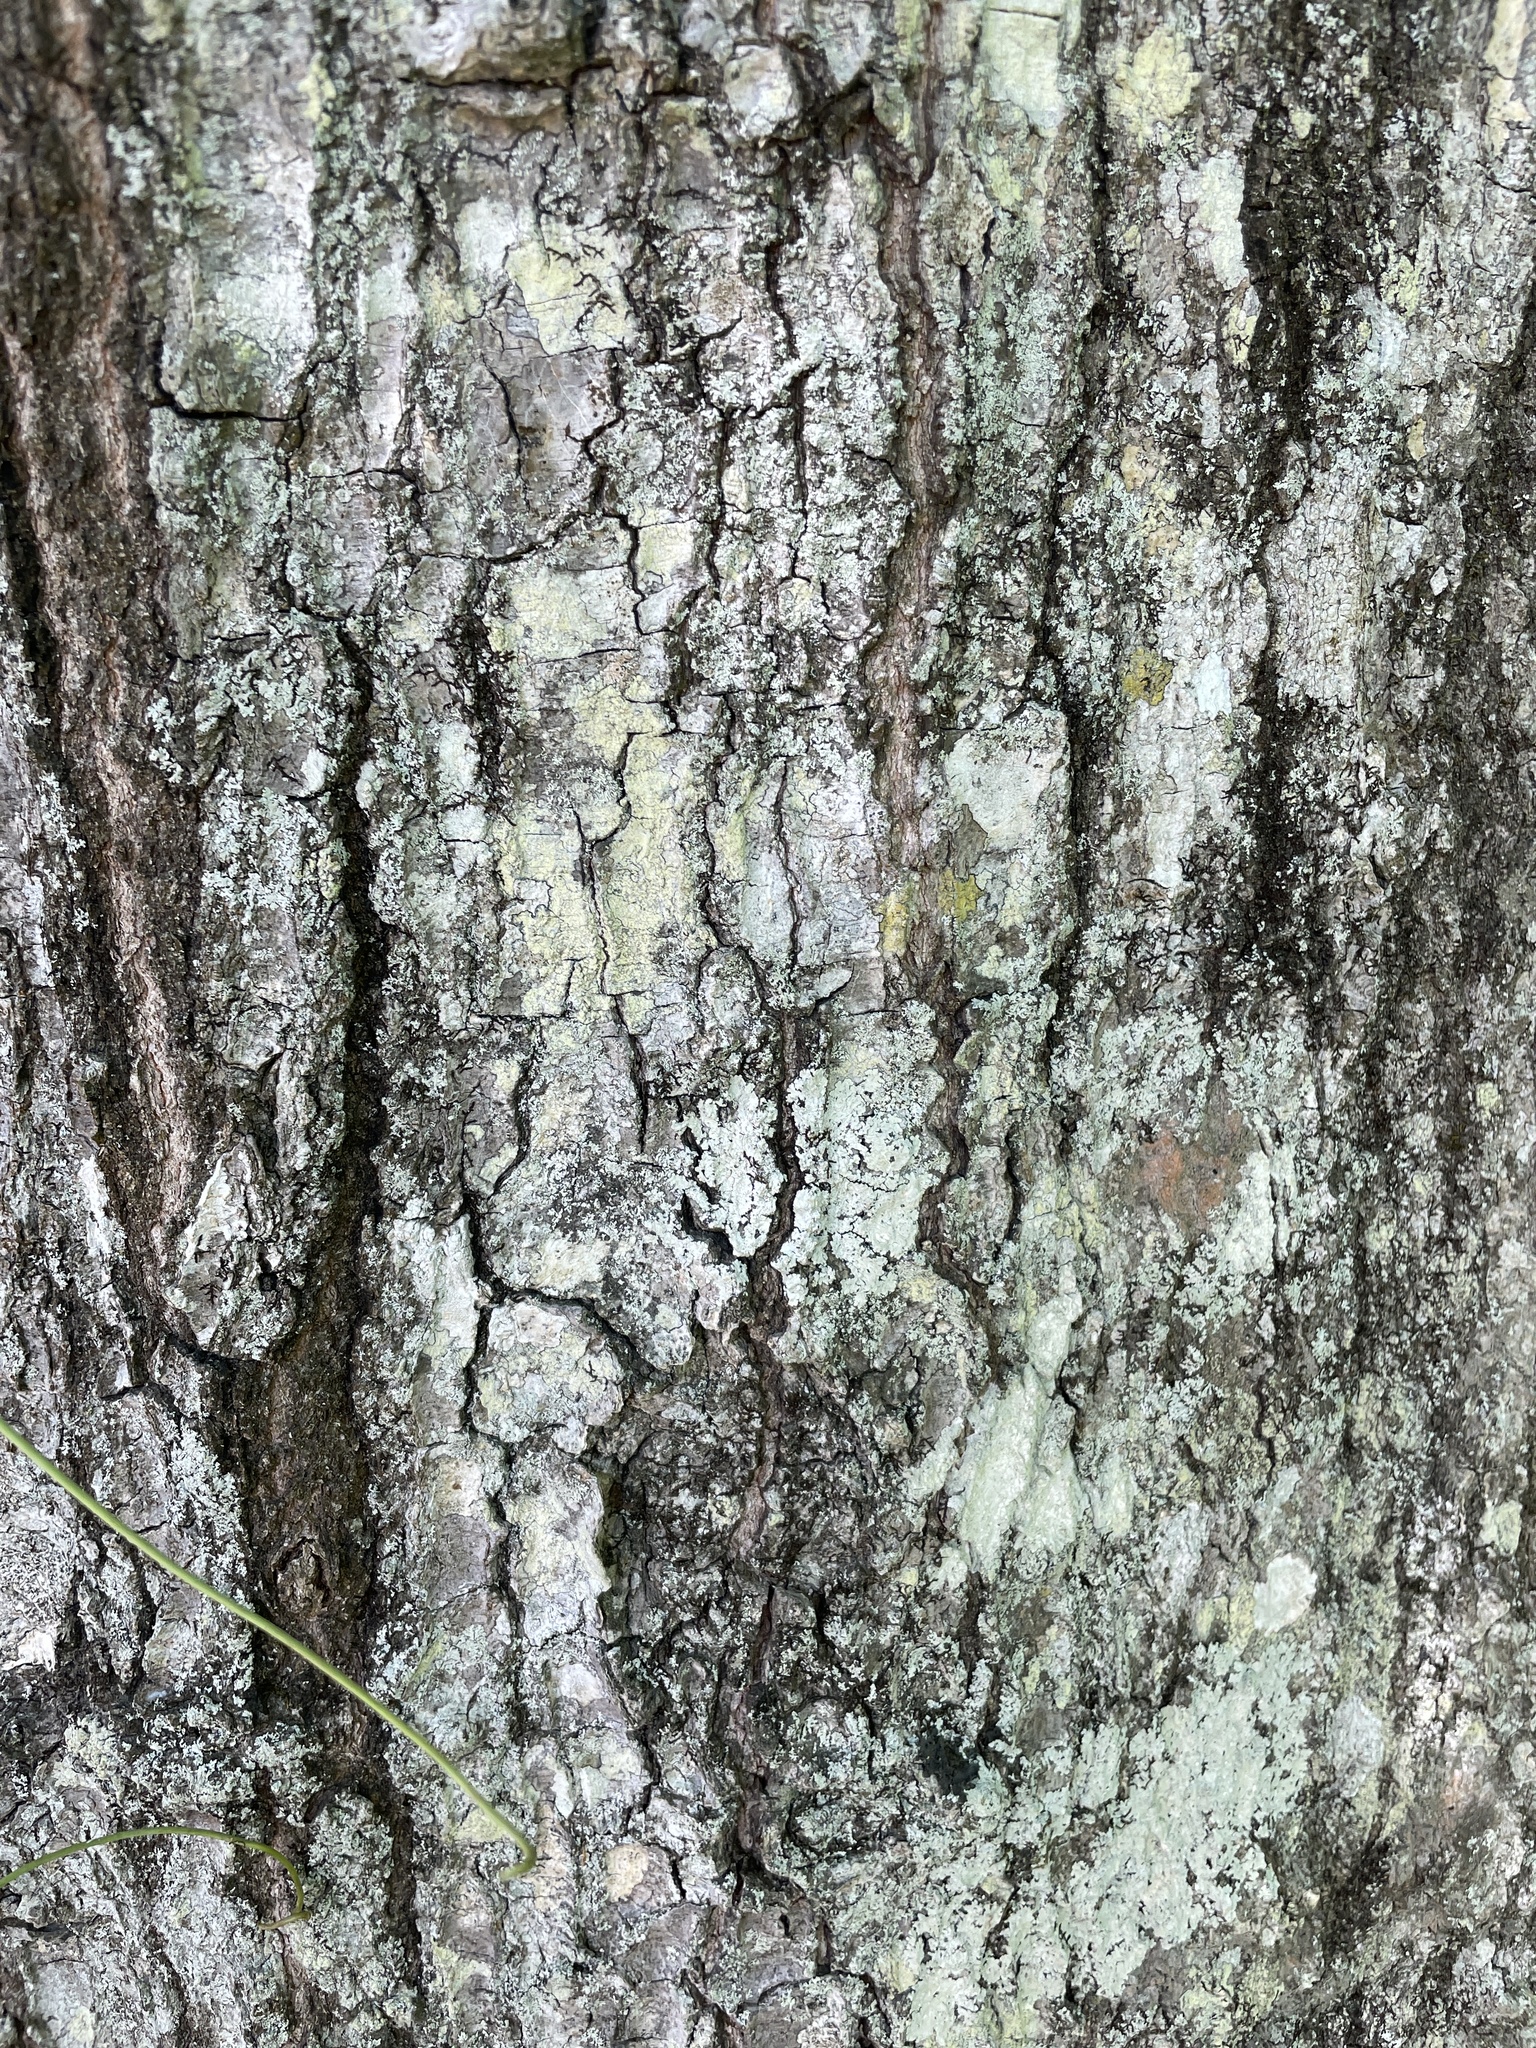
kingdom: Plantae
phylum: Tracheophyta
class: Magnoliopsida
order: Fagales
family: Fagaceae
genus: Quercus
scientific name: Quercus nigra
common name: Water oak
